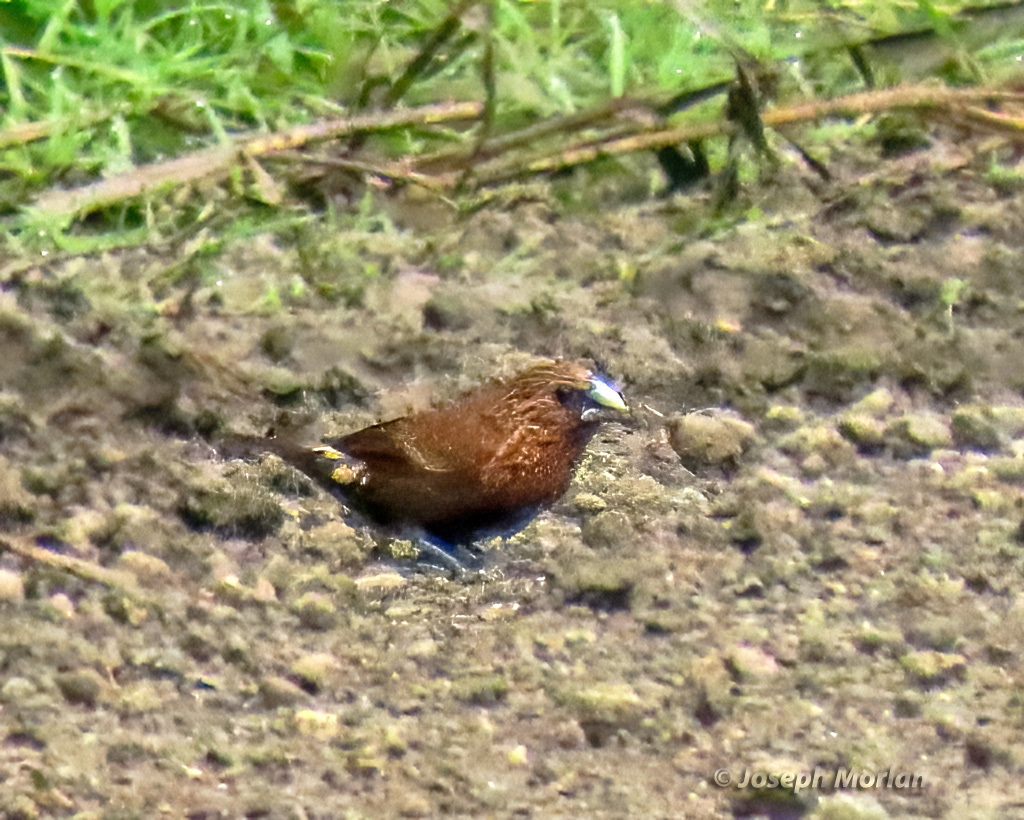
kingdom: Animalia
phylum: Chordata
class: Aves
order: Passeriformes
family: Estrildidae
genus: Lonchura
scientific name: Lonchura tristissima
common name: Streak-headed munia
